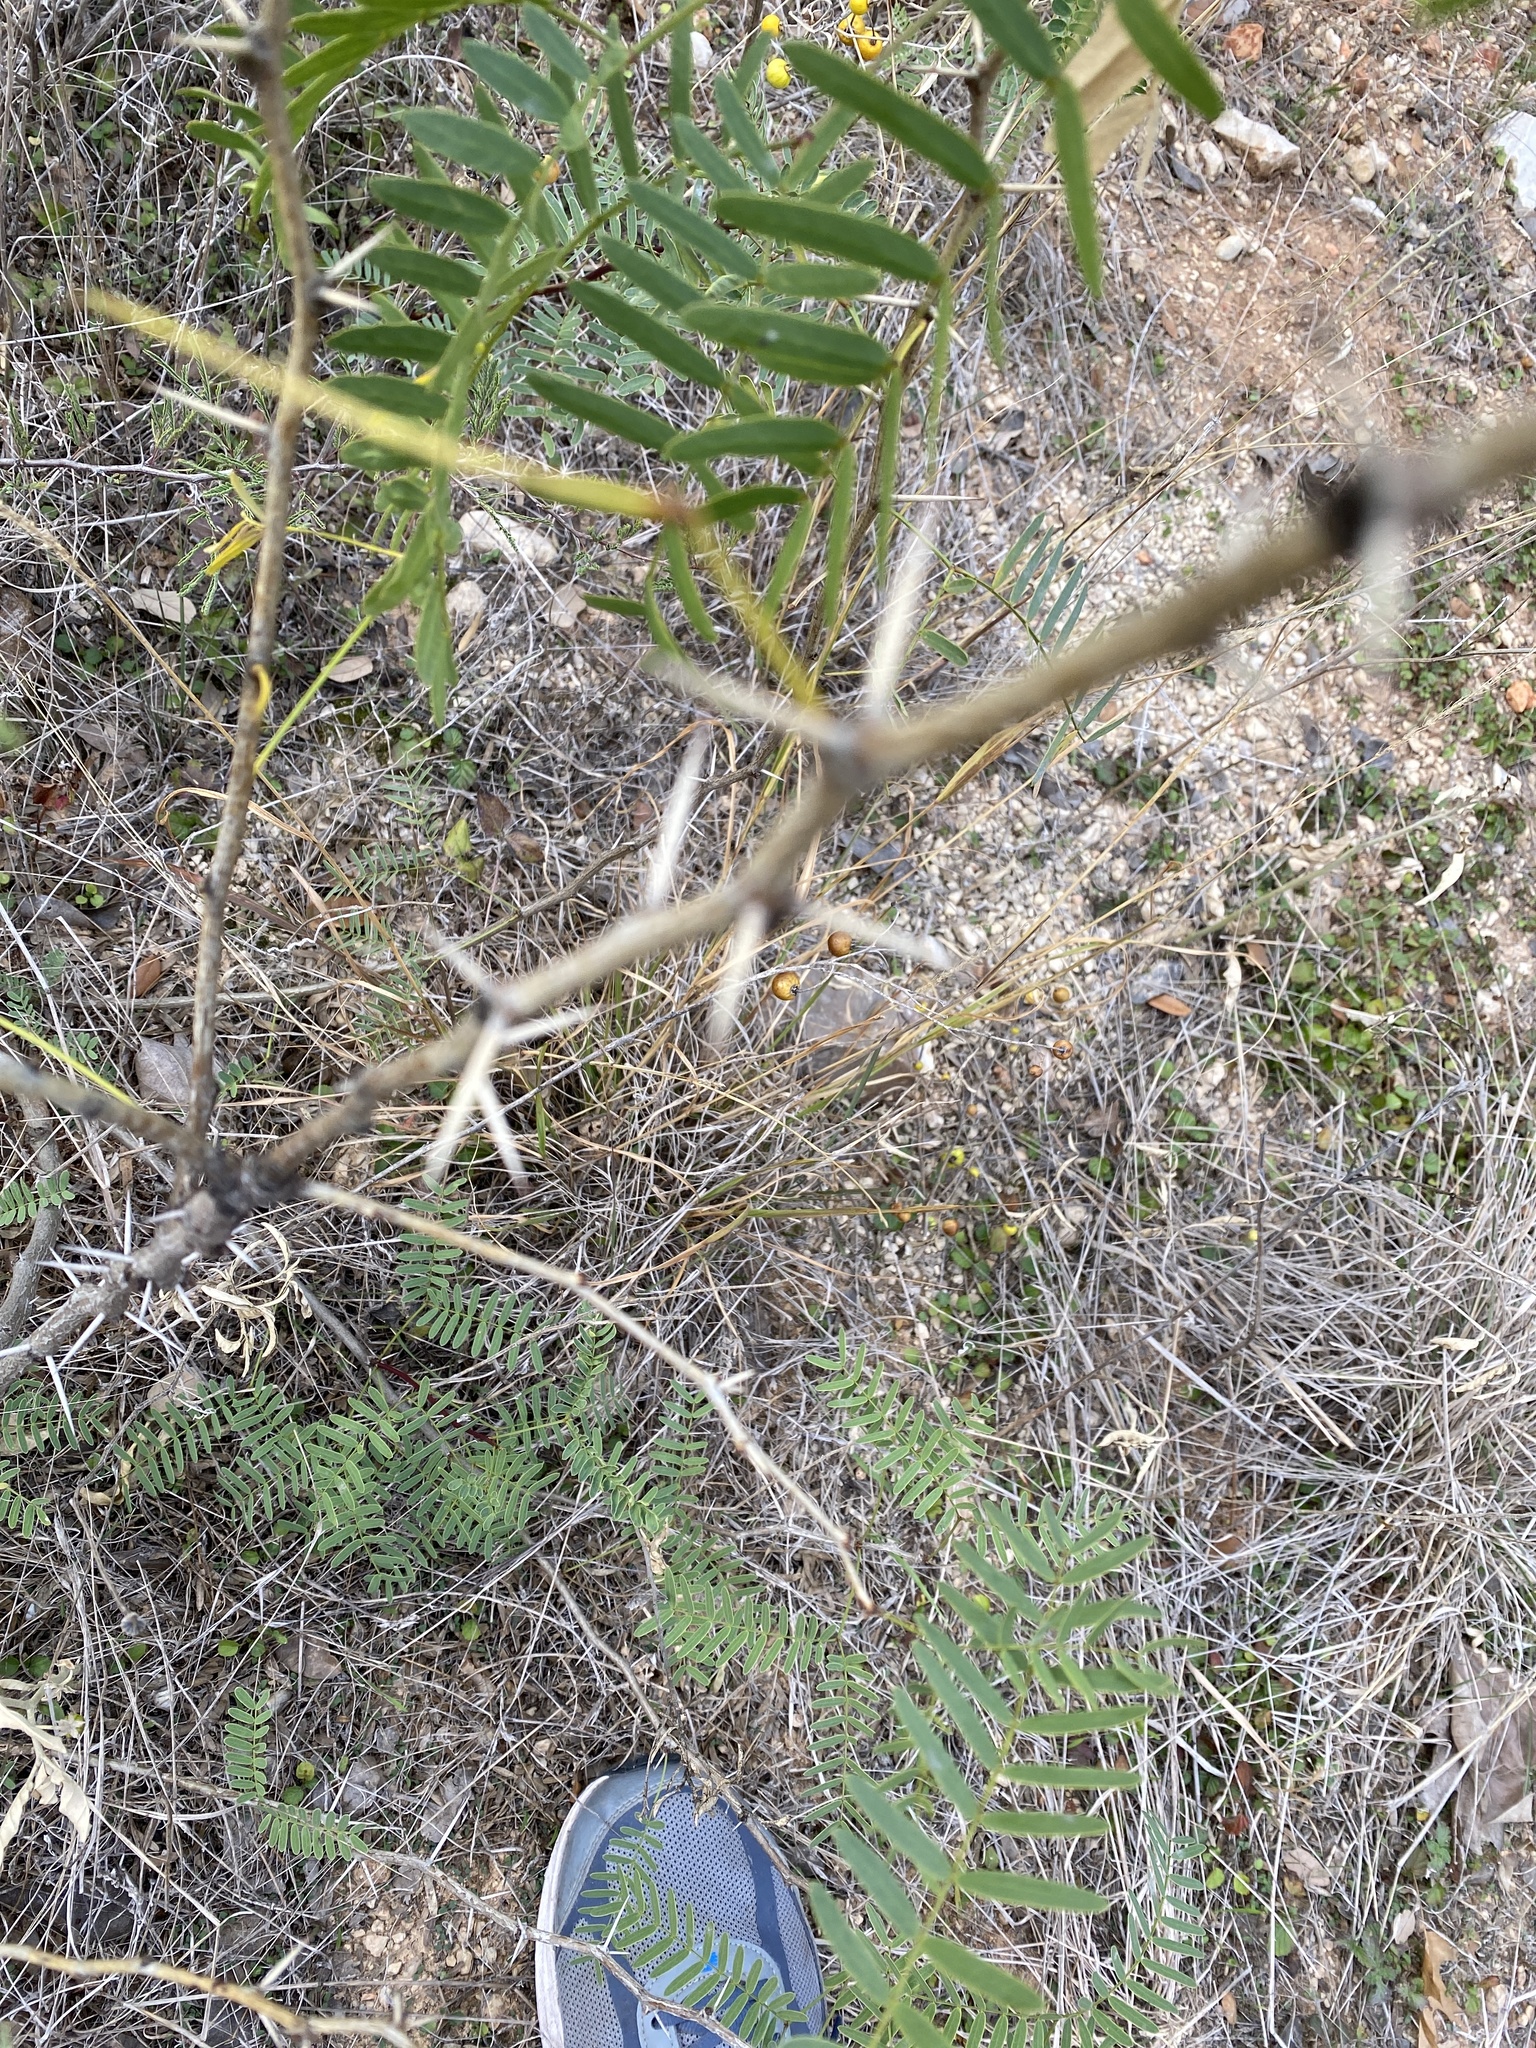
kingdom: Plantae
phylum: Tracheophyta
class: Magnoliopsida
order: Fabales
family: Fabaceae
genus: Prosopis
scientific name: Prosopis glandulosa
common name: Honey mesquite
